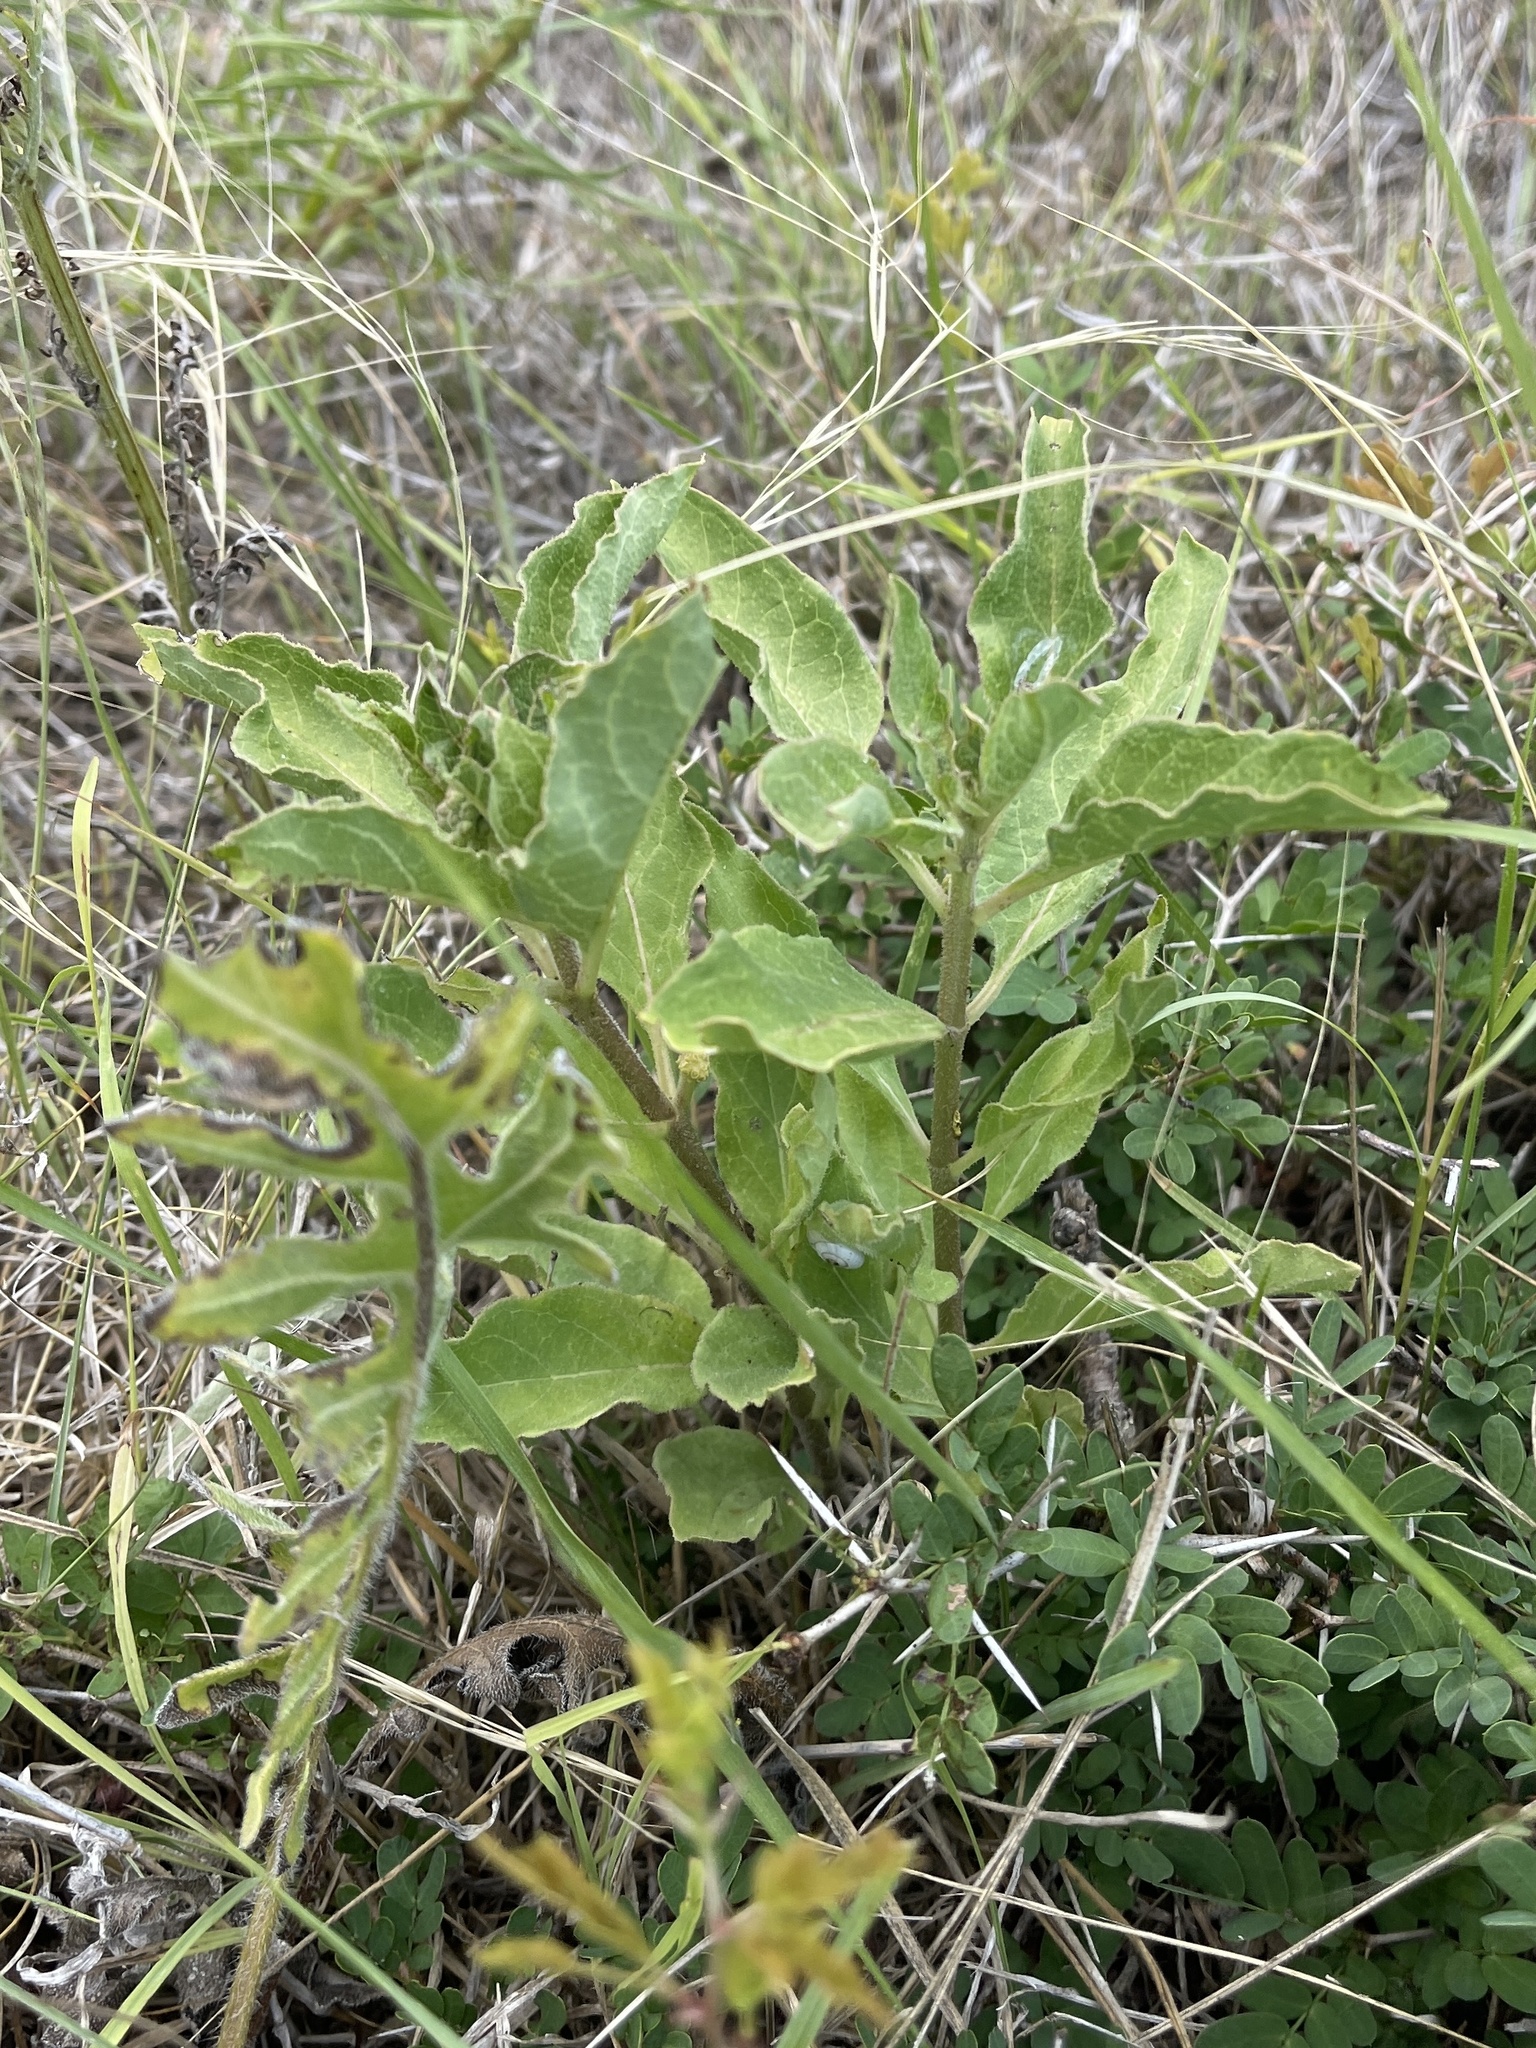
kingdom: Plantae
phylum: Tracheophyta
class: Magnoliopsida
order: Gentianales
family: Apocynaceae
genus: Asclepias
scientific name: Asclepias oenotheroides
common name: Zizotes milkweed
